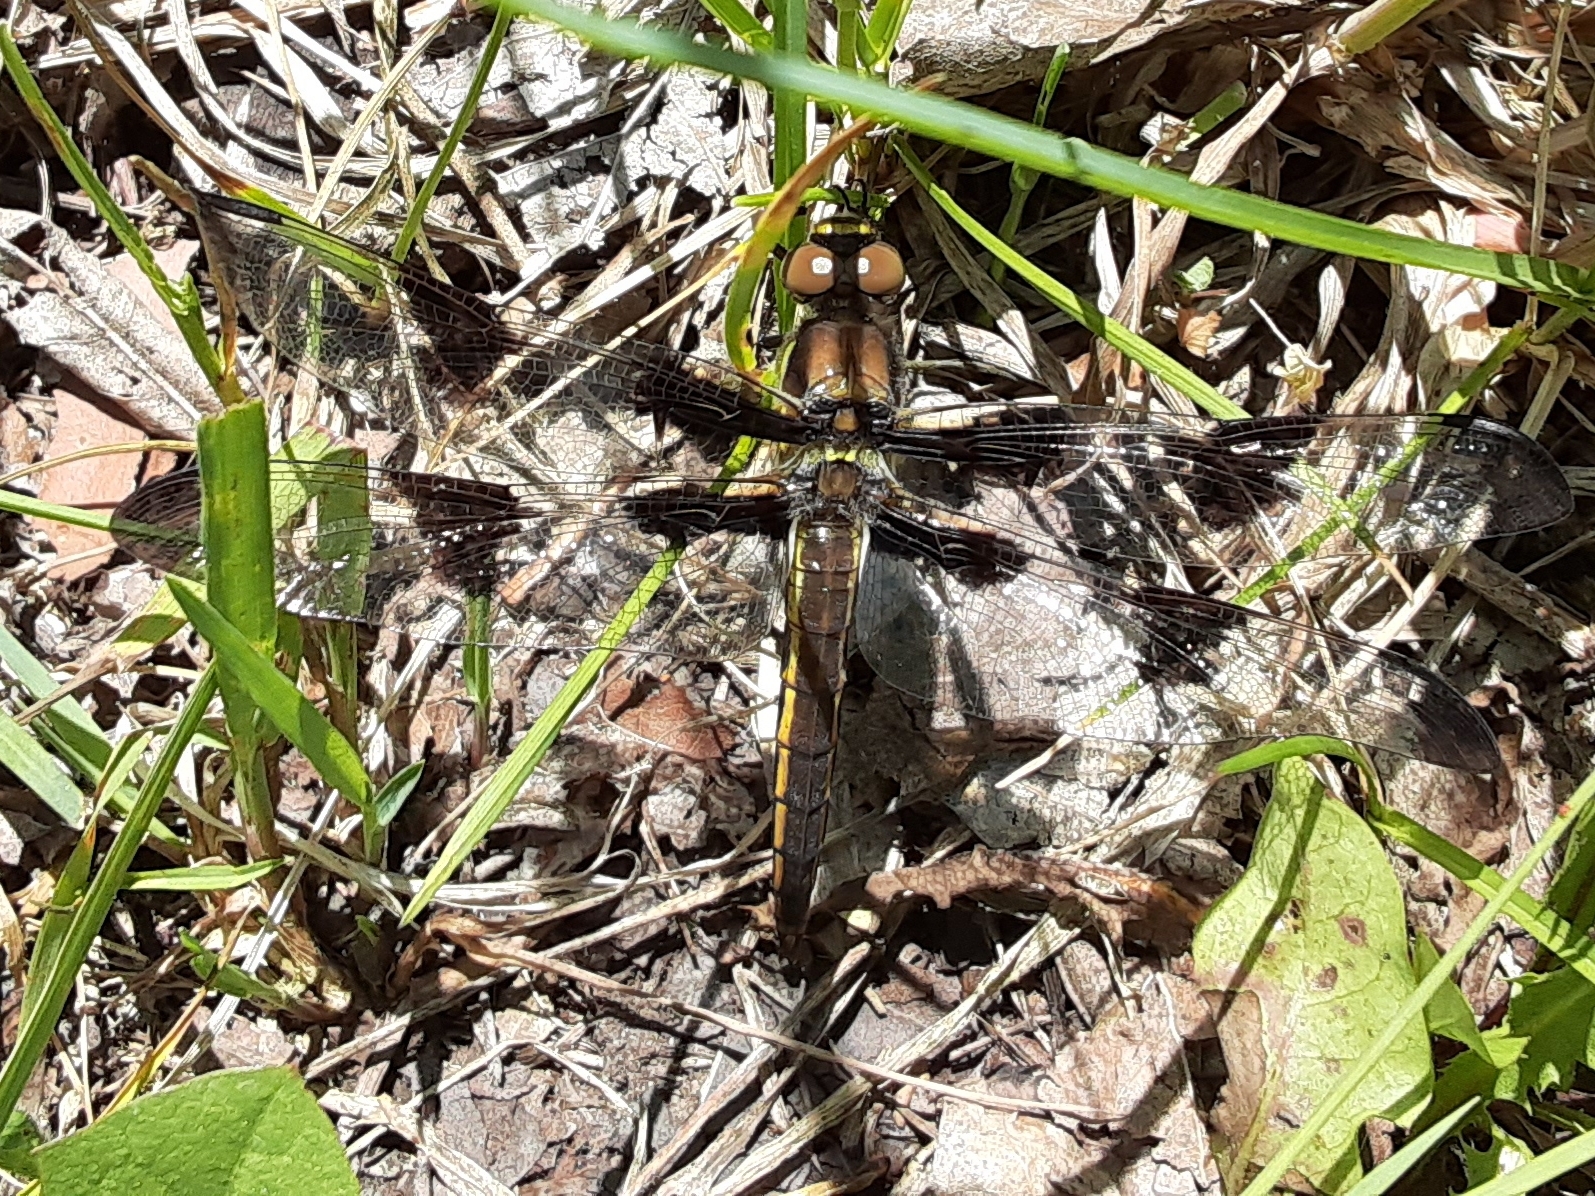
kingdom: Animalia
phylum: Arthropoda
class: Insecta
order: Odonata
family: Libellulidae
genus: Libellula
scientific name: Libellula pulchella
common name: Twelve-spotted skimmer
